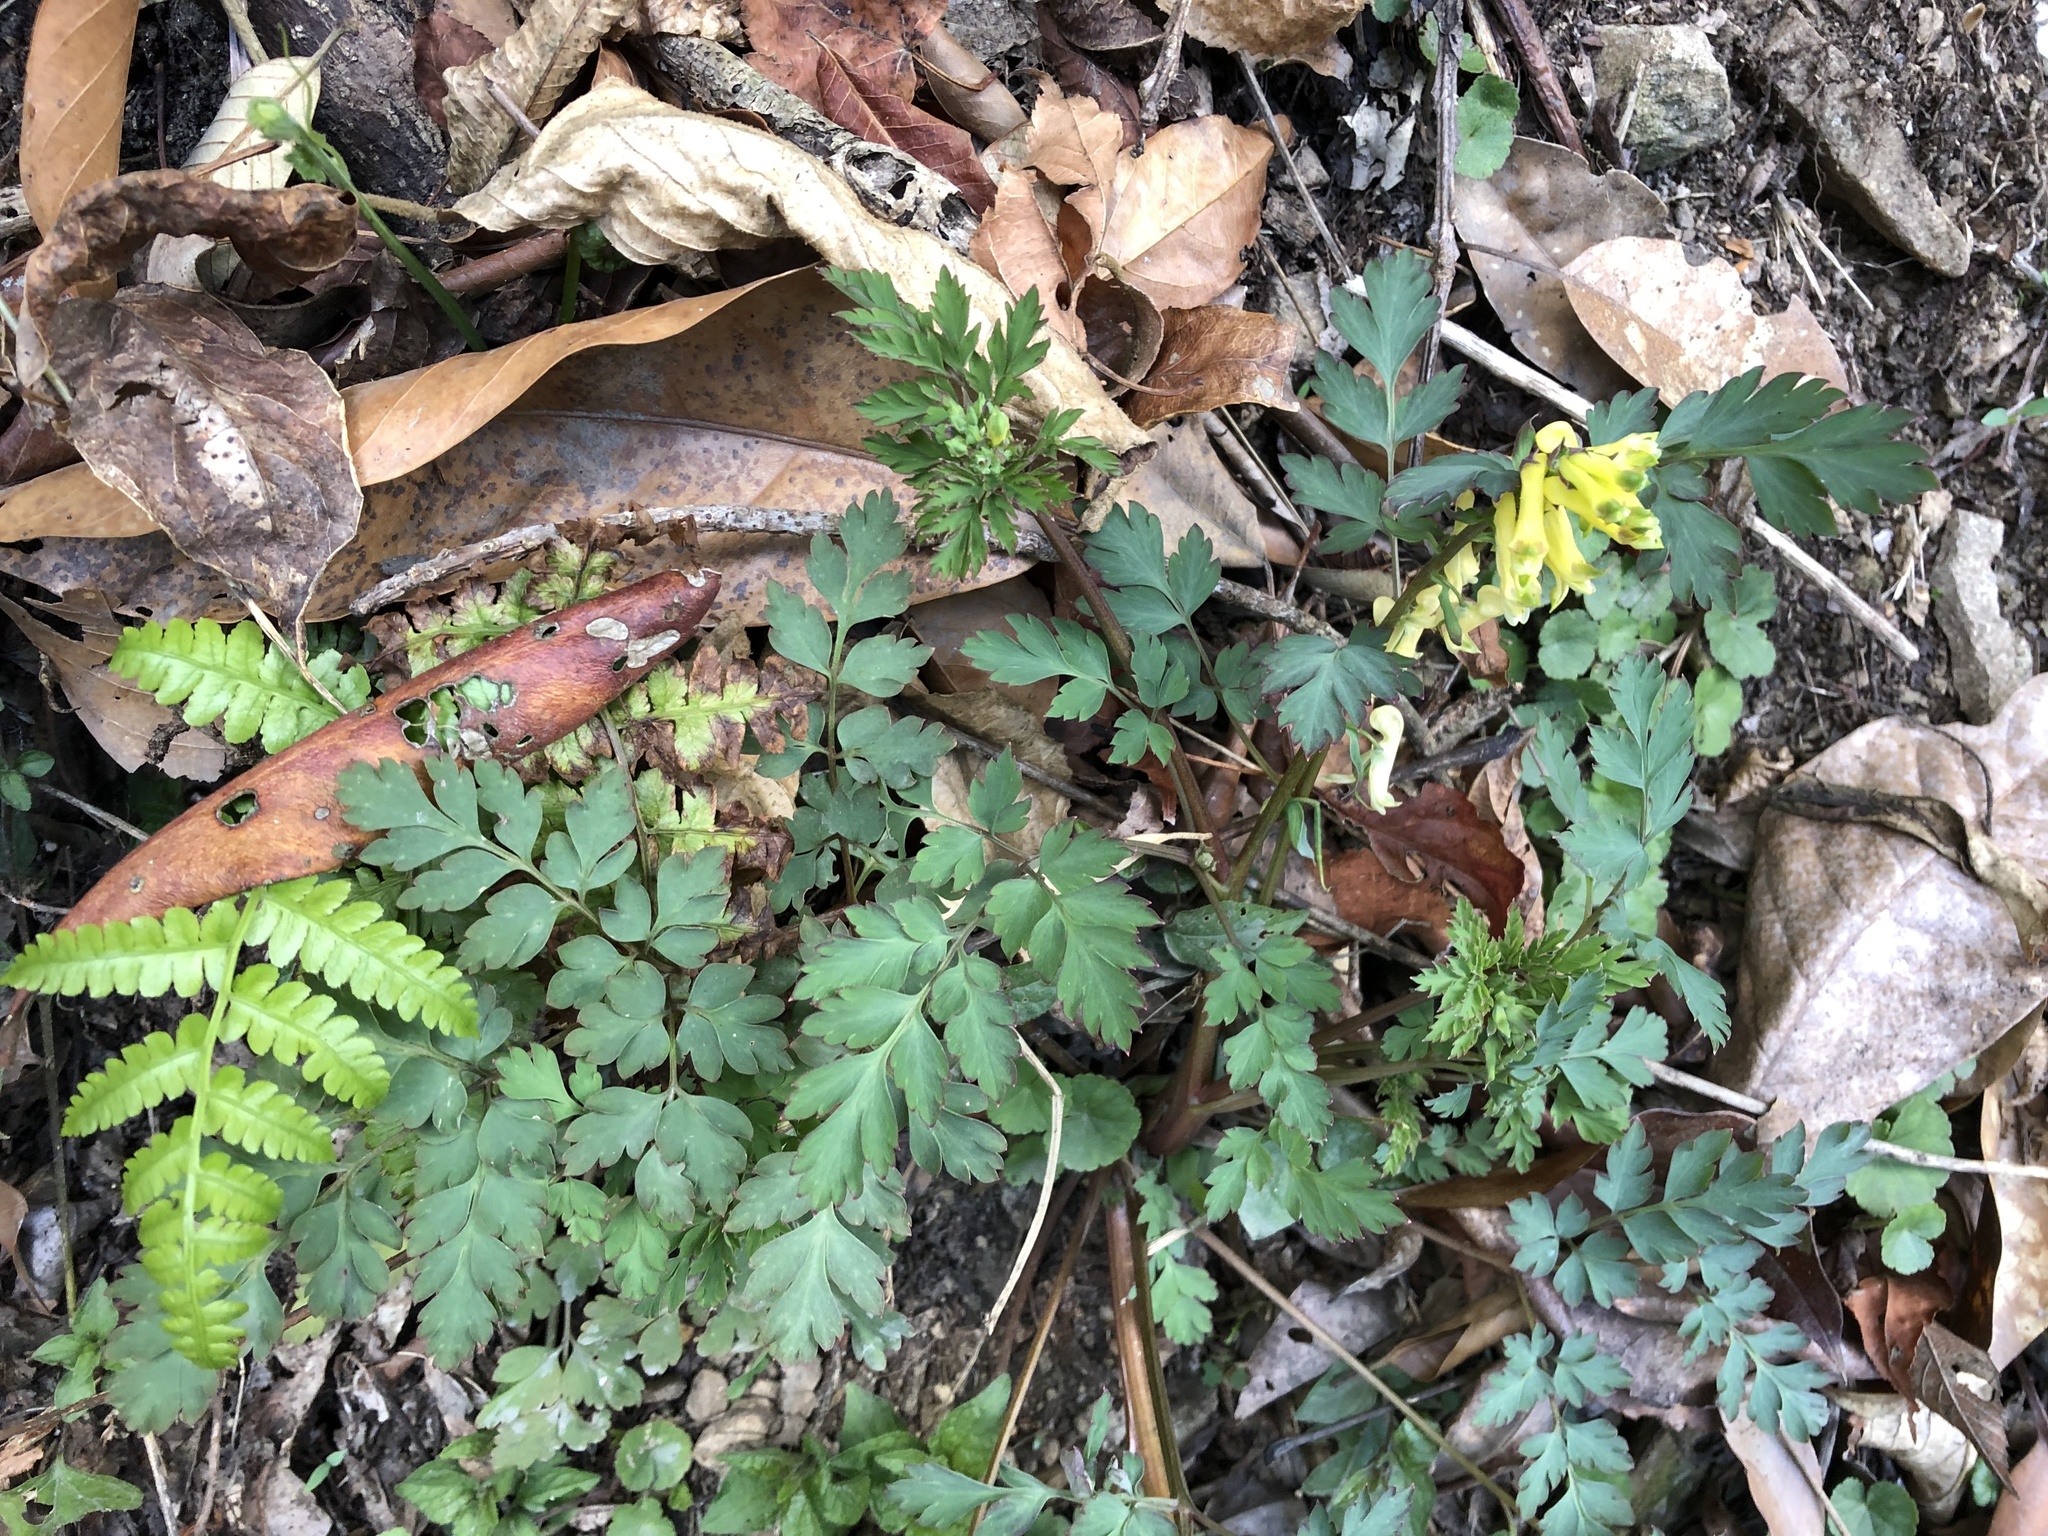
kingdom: Plantae
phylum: Tracheophyta
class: Magnoliopsida
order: Ranunculales
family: Papaveraceae
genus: Corydalis
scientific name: Corydalis balansae
